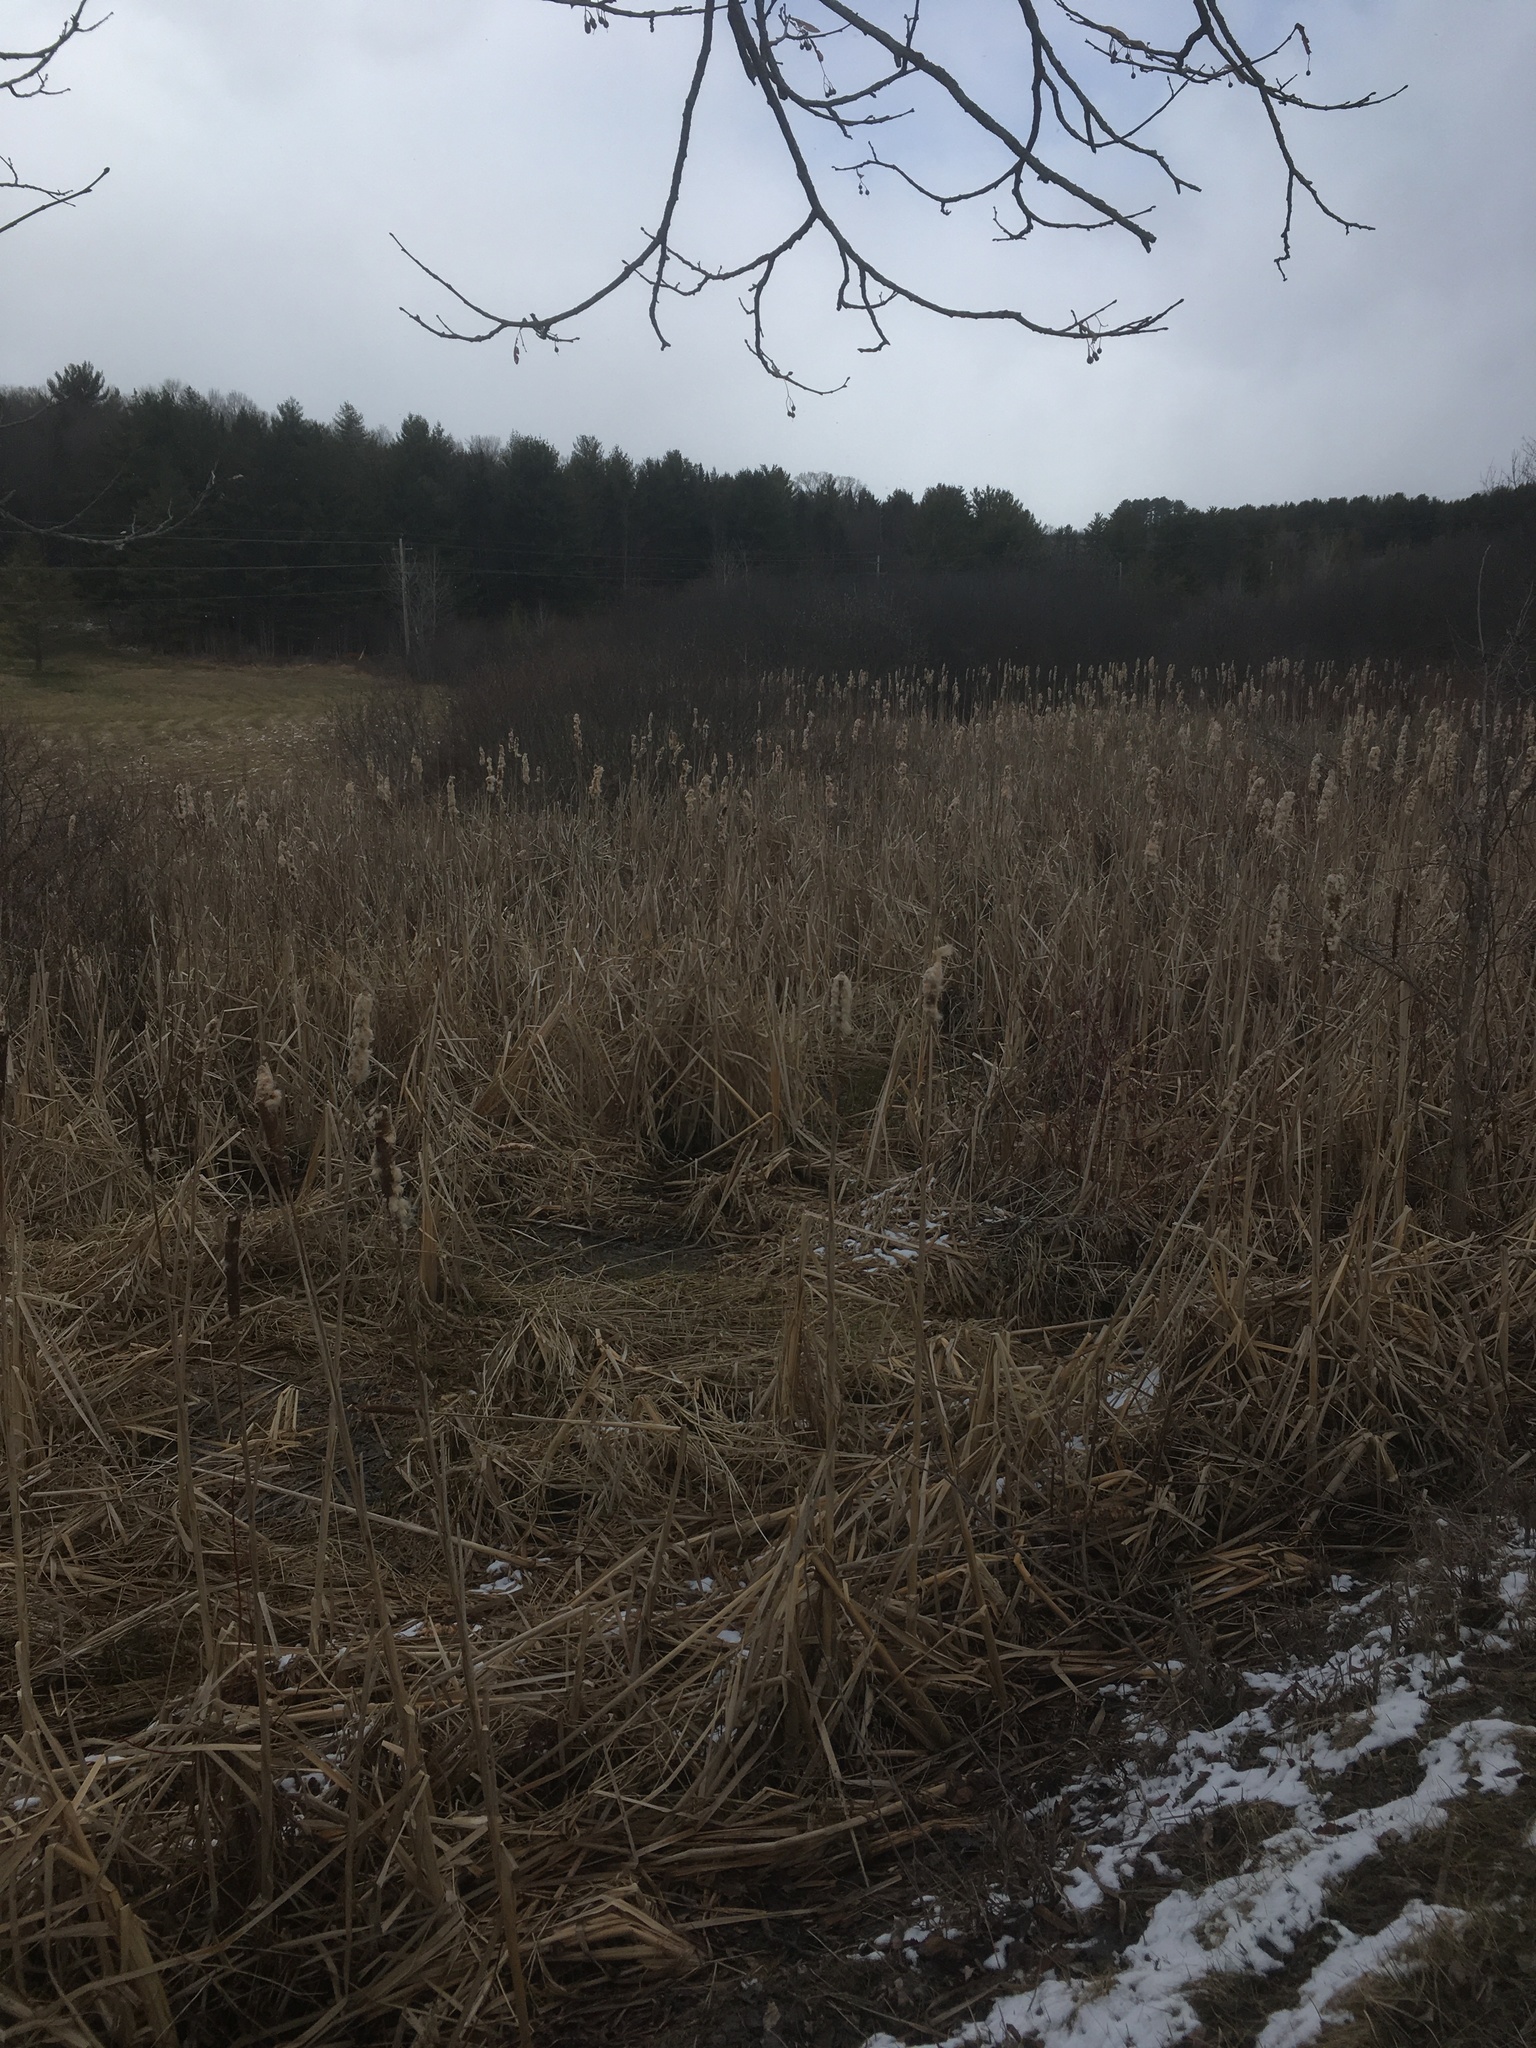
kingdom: Plantae
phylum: Tracheophyta
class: Liliopsida
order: Poales
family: Typhaceae
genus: Typha
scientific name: Typha latifolia
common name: Broadleaf cattail
